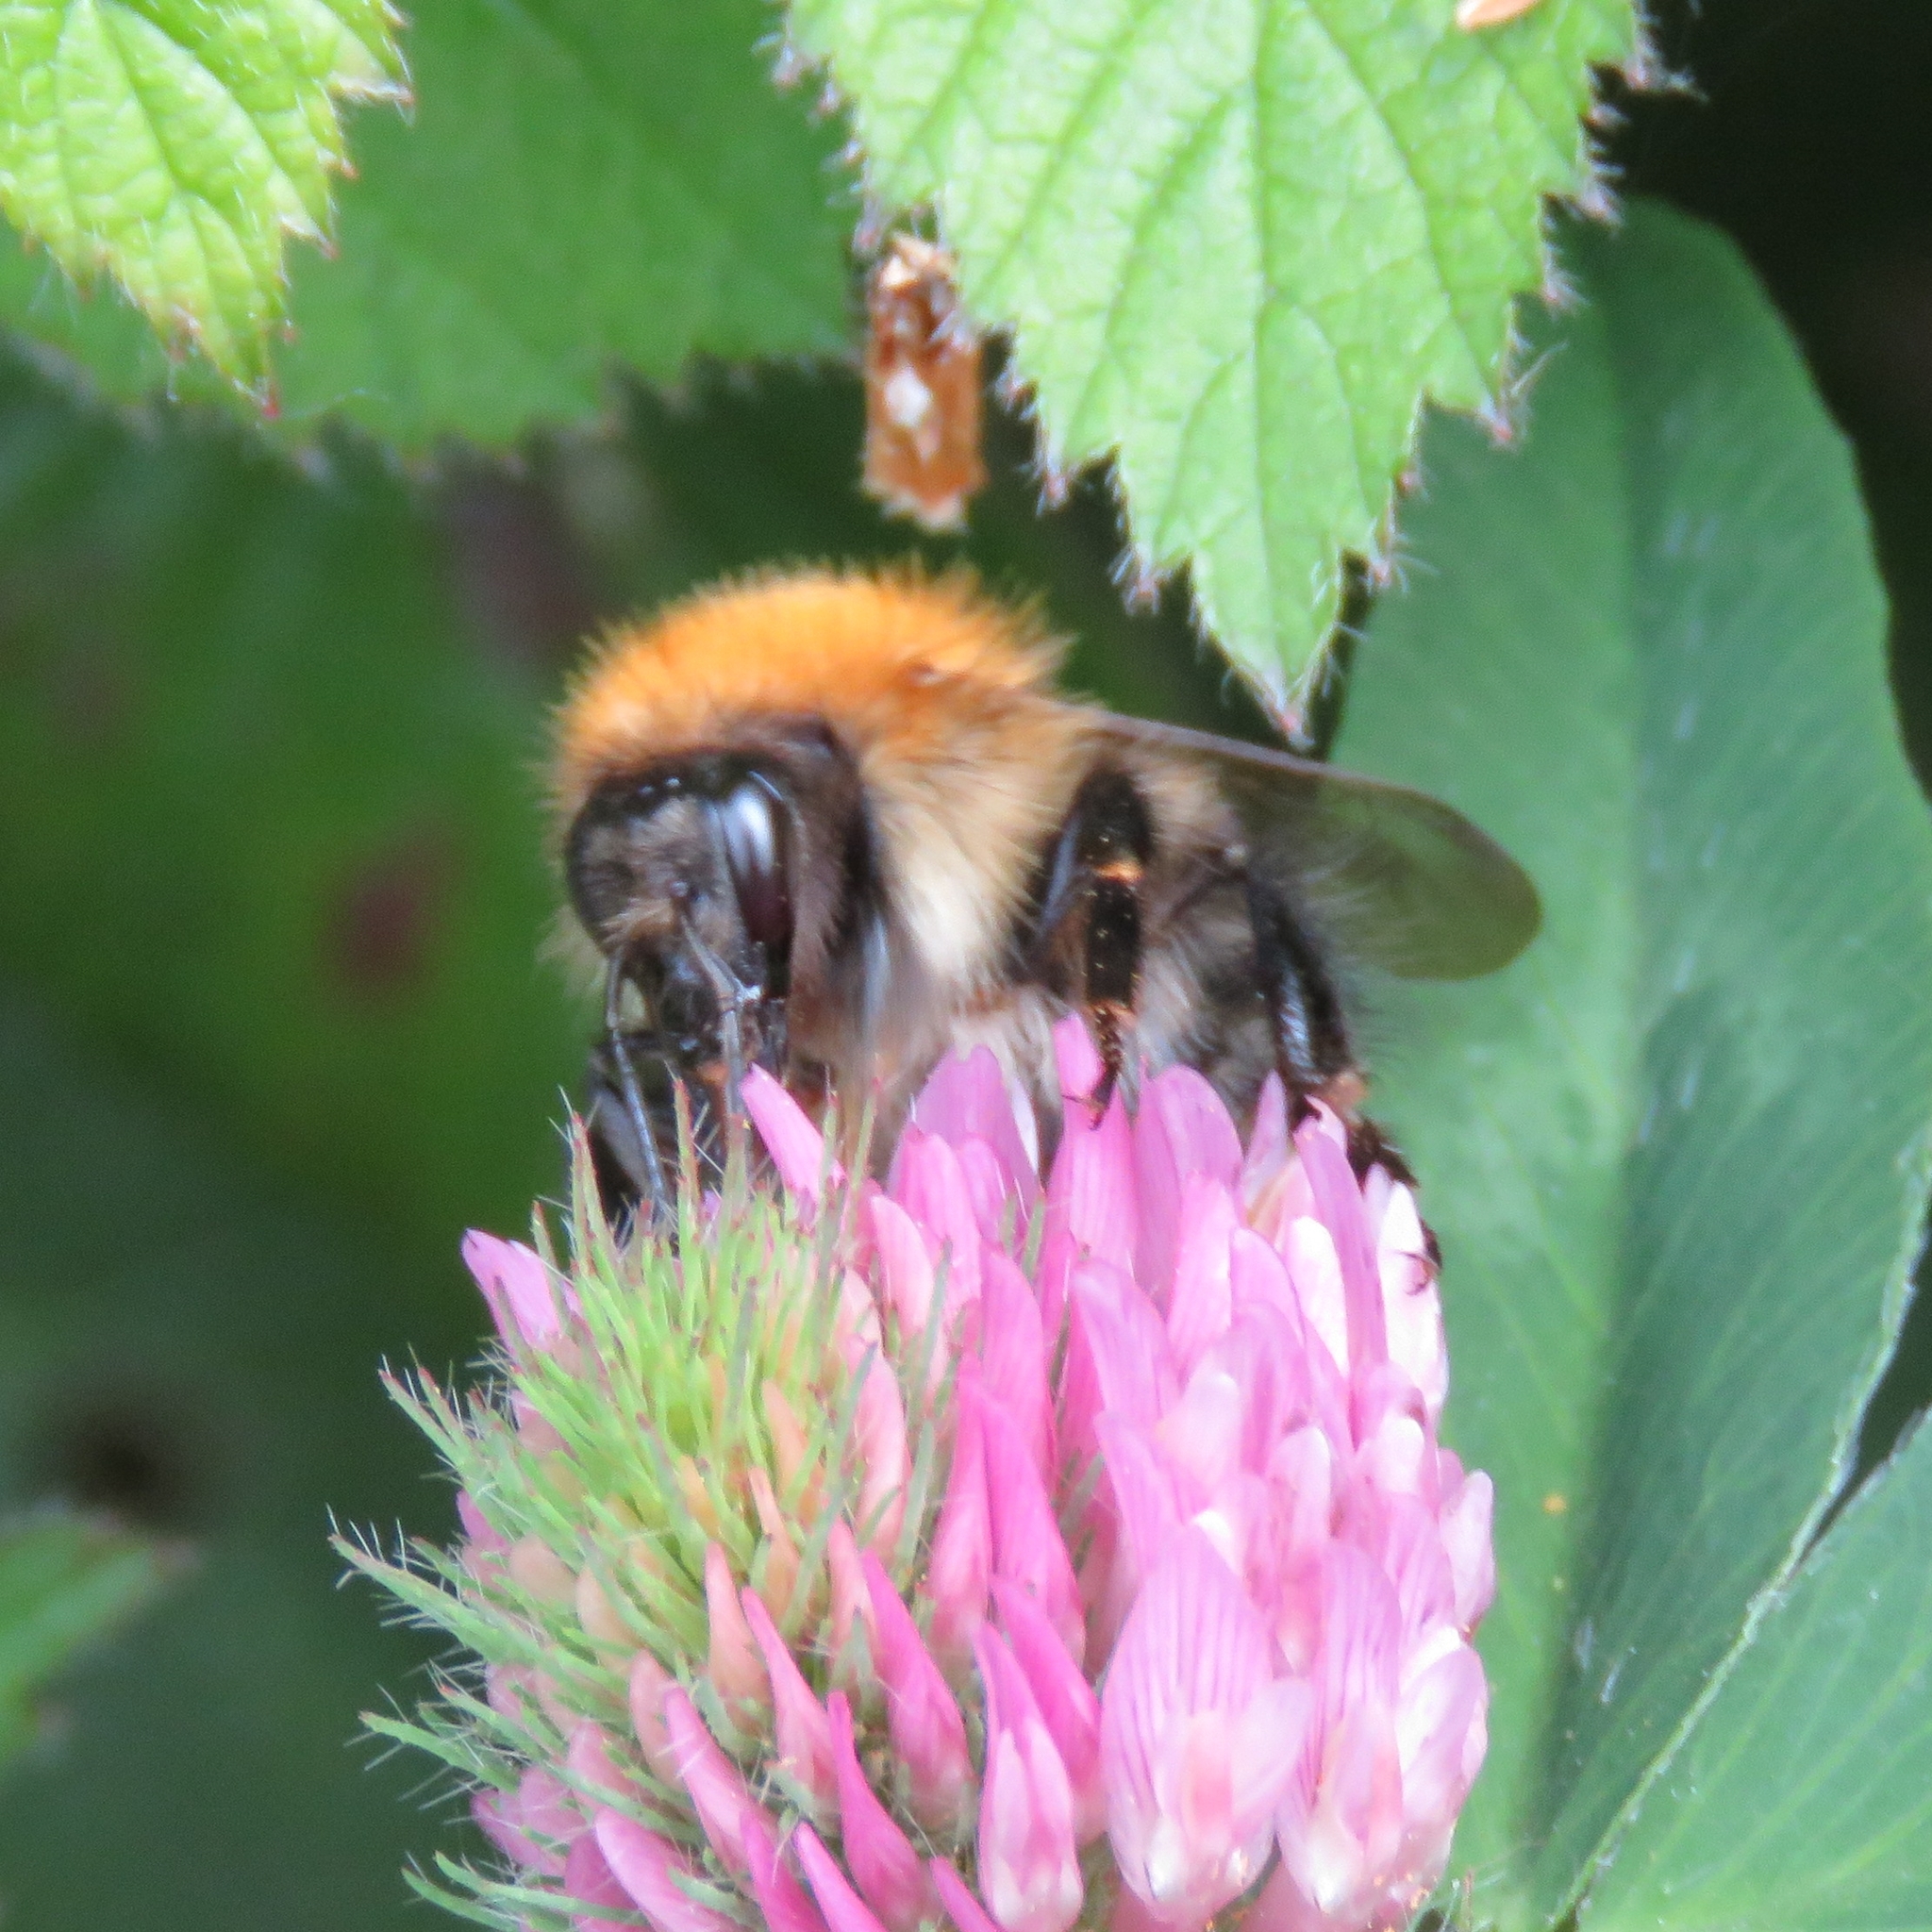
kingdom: Animalia
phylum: Arthropoda
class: Insecta
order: Hymenoptera
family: Apidae
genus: Bombus
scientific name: Bombus pascuorum
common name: Common carder bee
